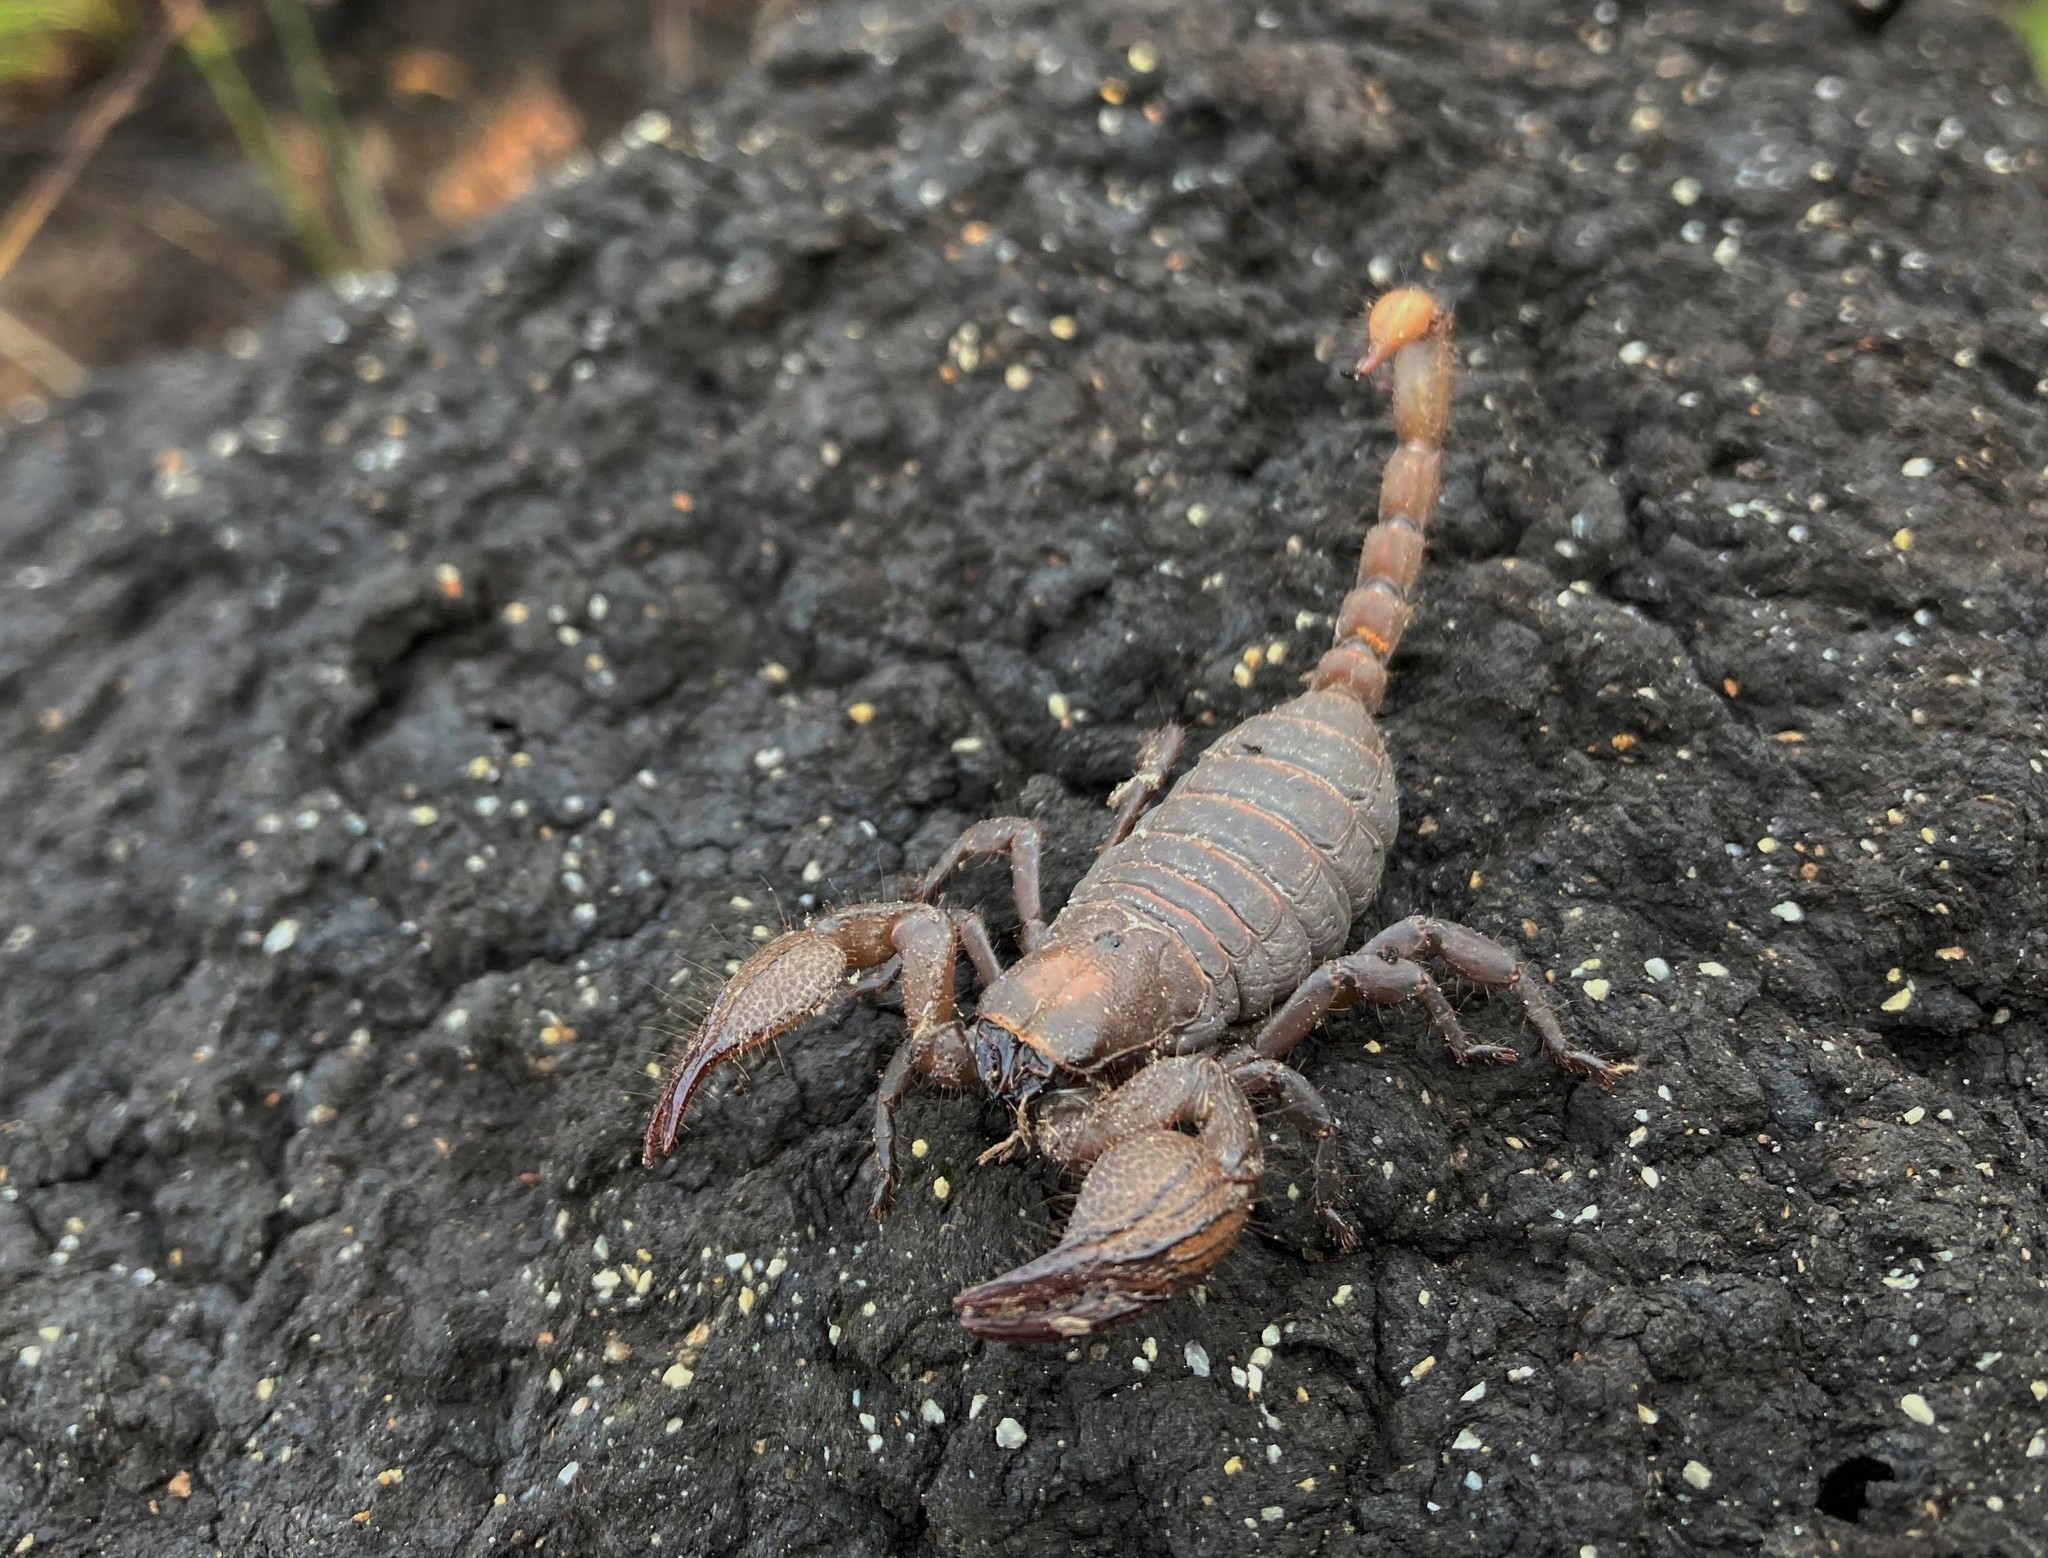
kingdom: Animalia
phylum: Arthropoda
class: Arachnida
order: Scorpiones
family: Scorpionidae
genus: Opistophthalmus
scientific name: Opistophthalmus macer
